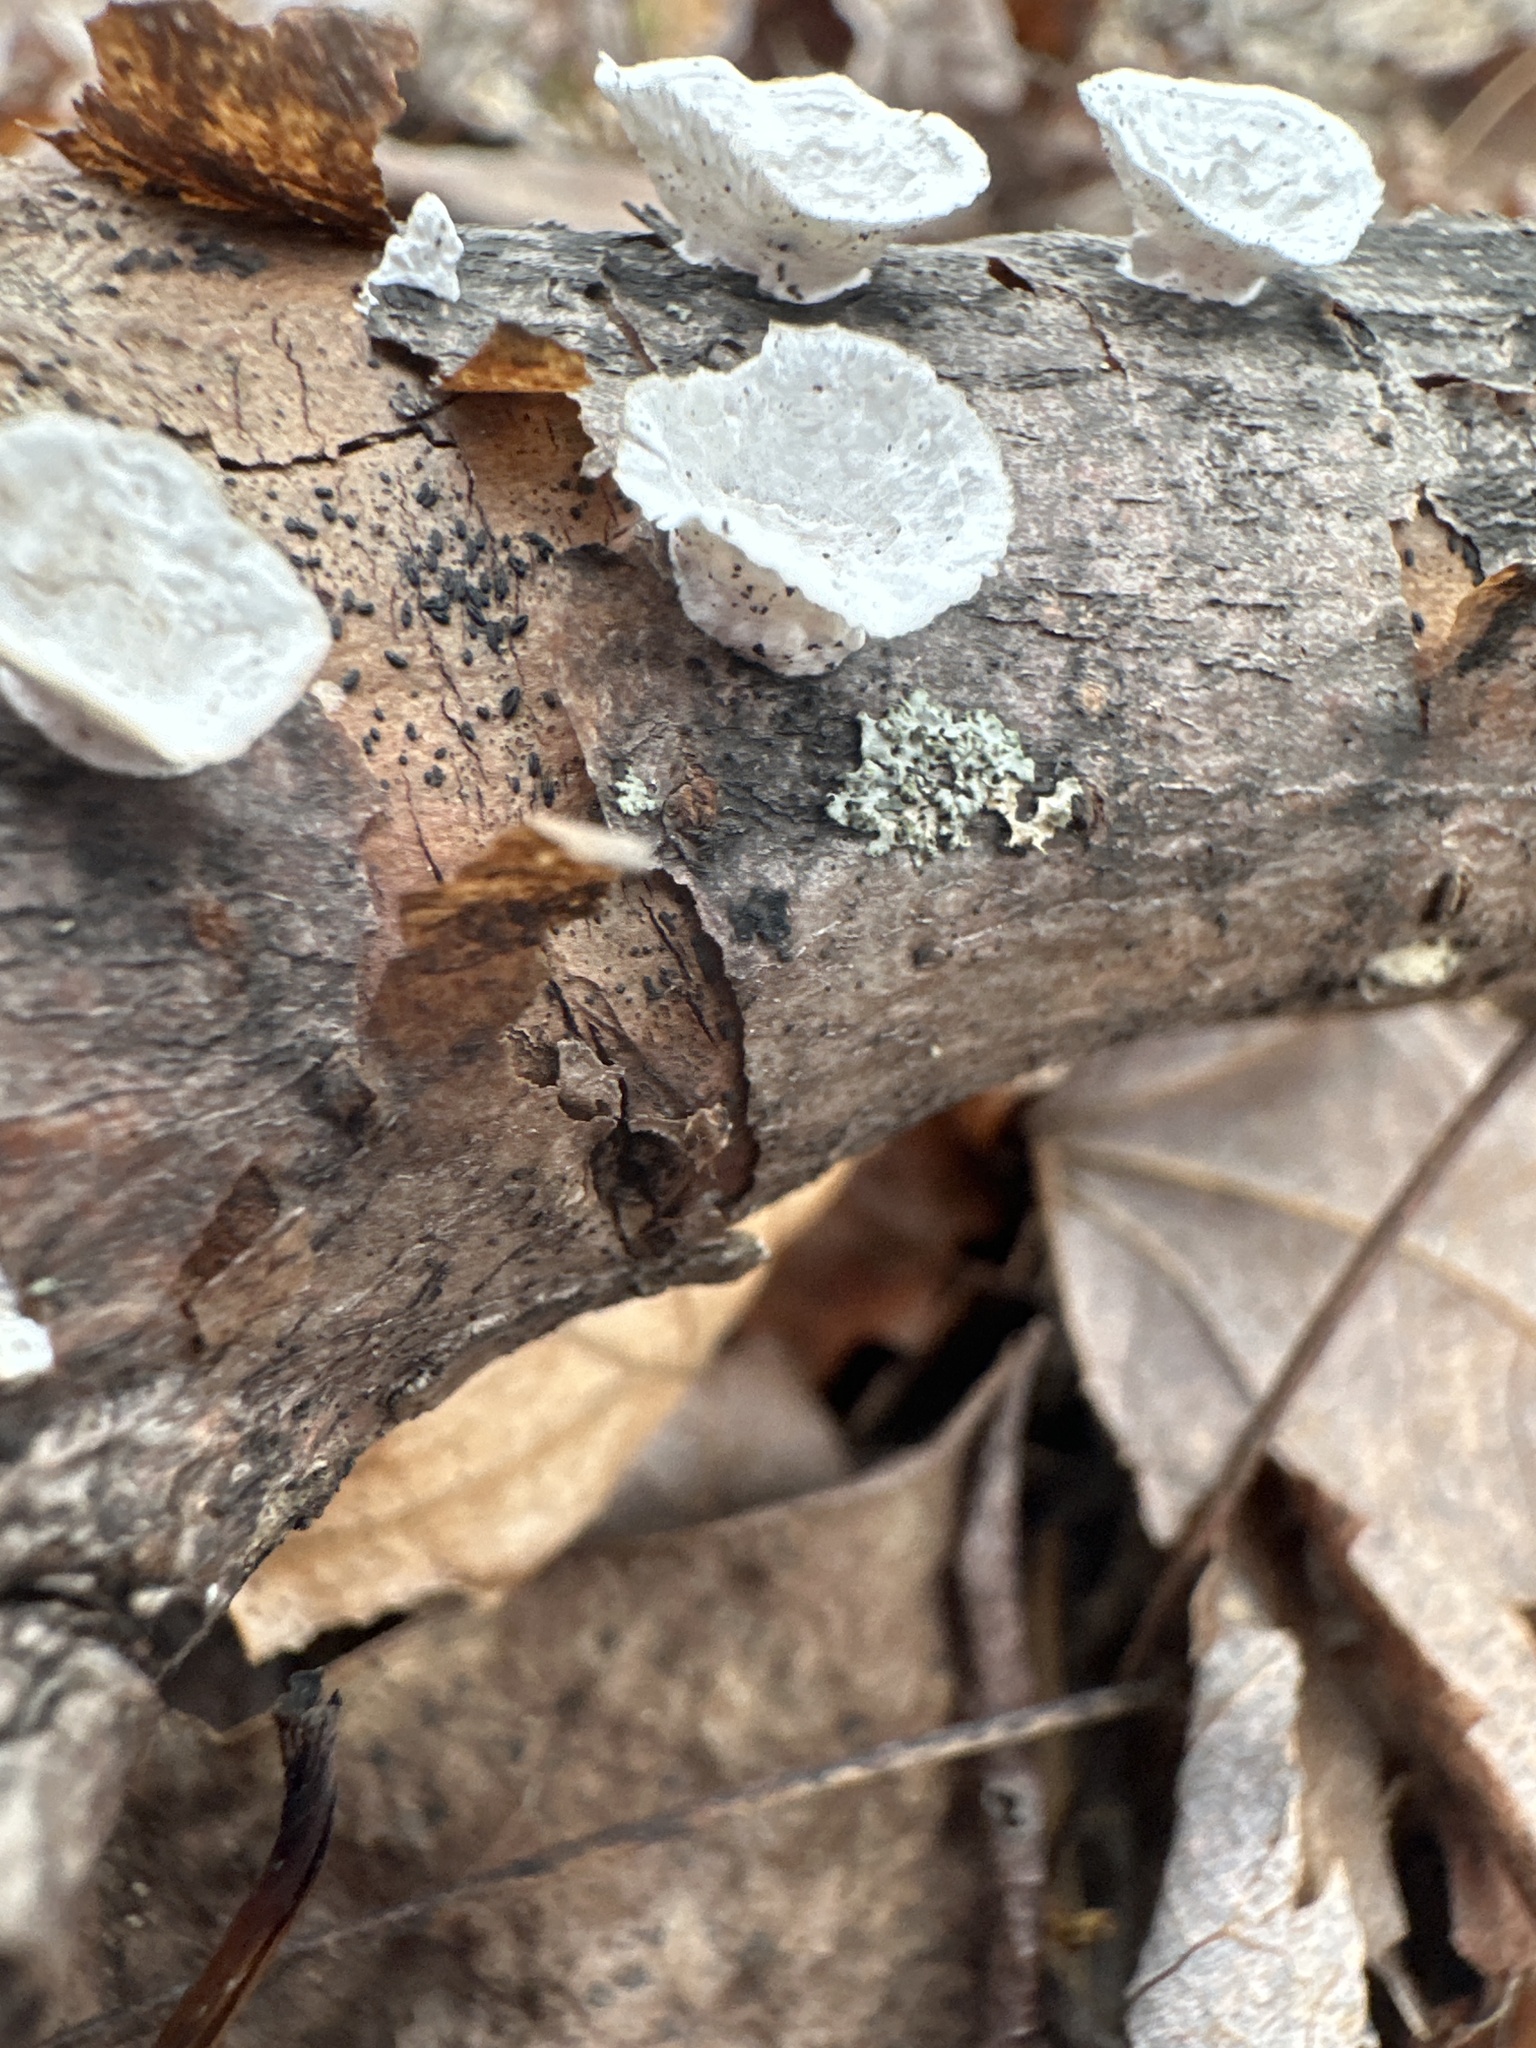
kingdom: Fungi
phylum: Basidiomycota
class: Agaricomycetes
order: Polyporales
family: Polyporaceae
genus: Poronidulus
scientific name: Poronidulus conchifer
